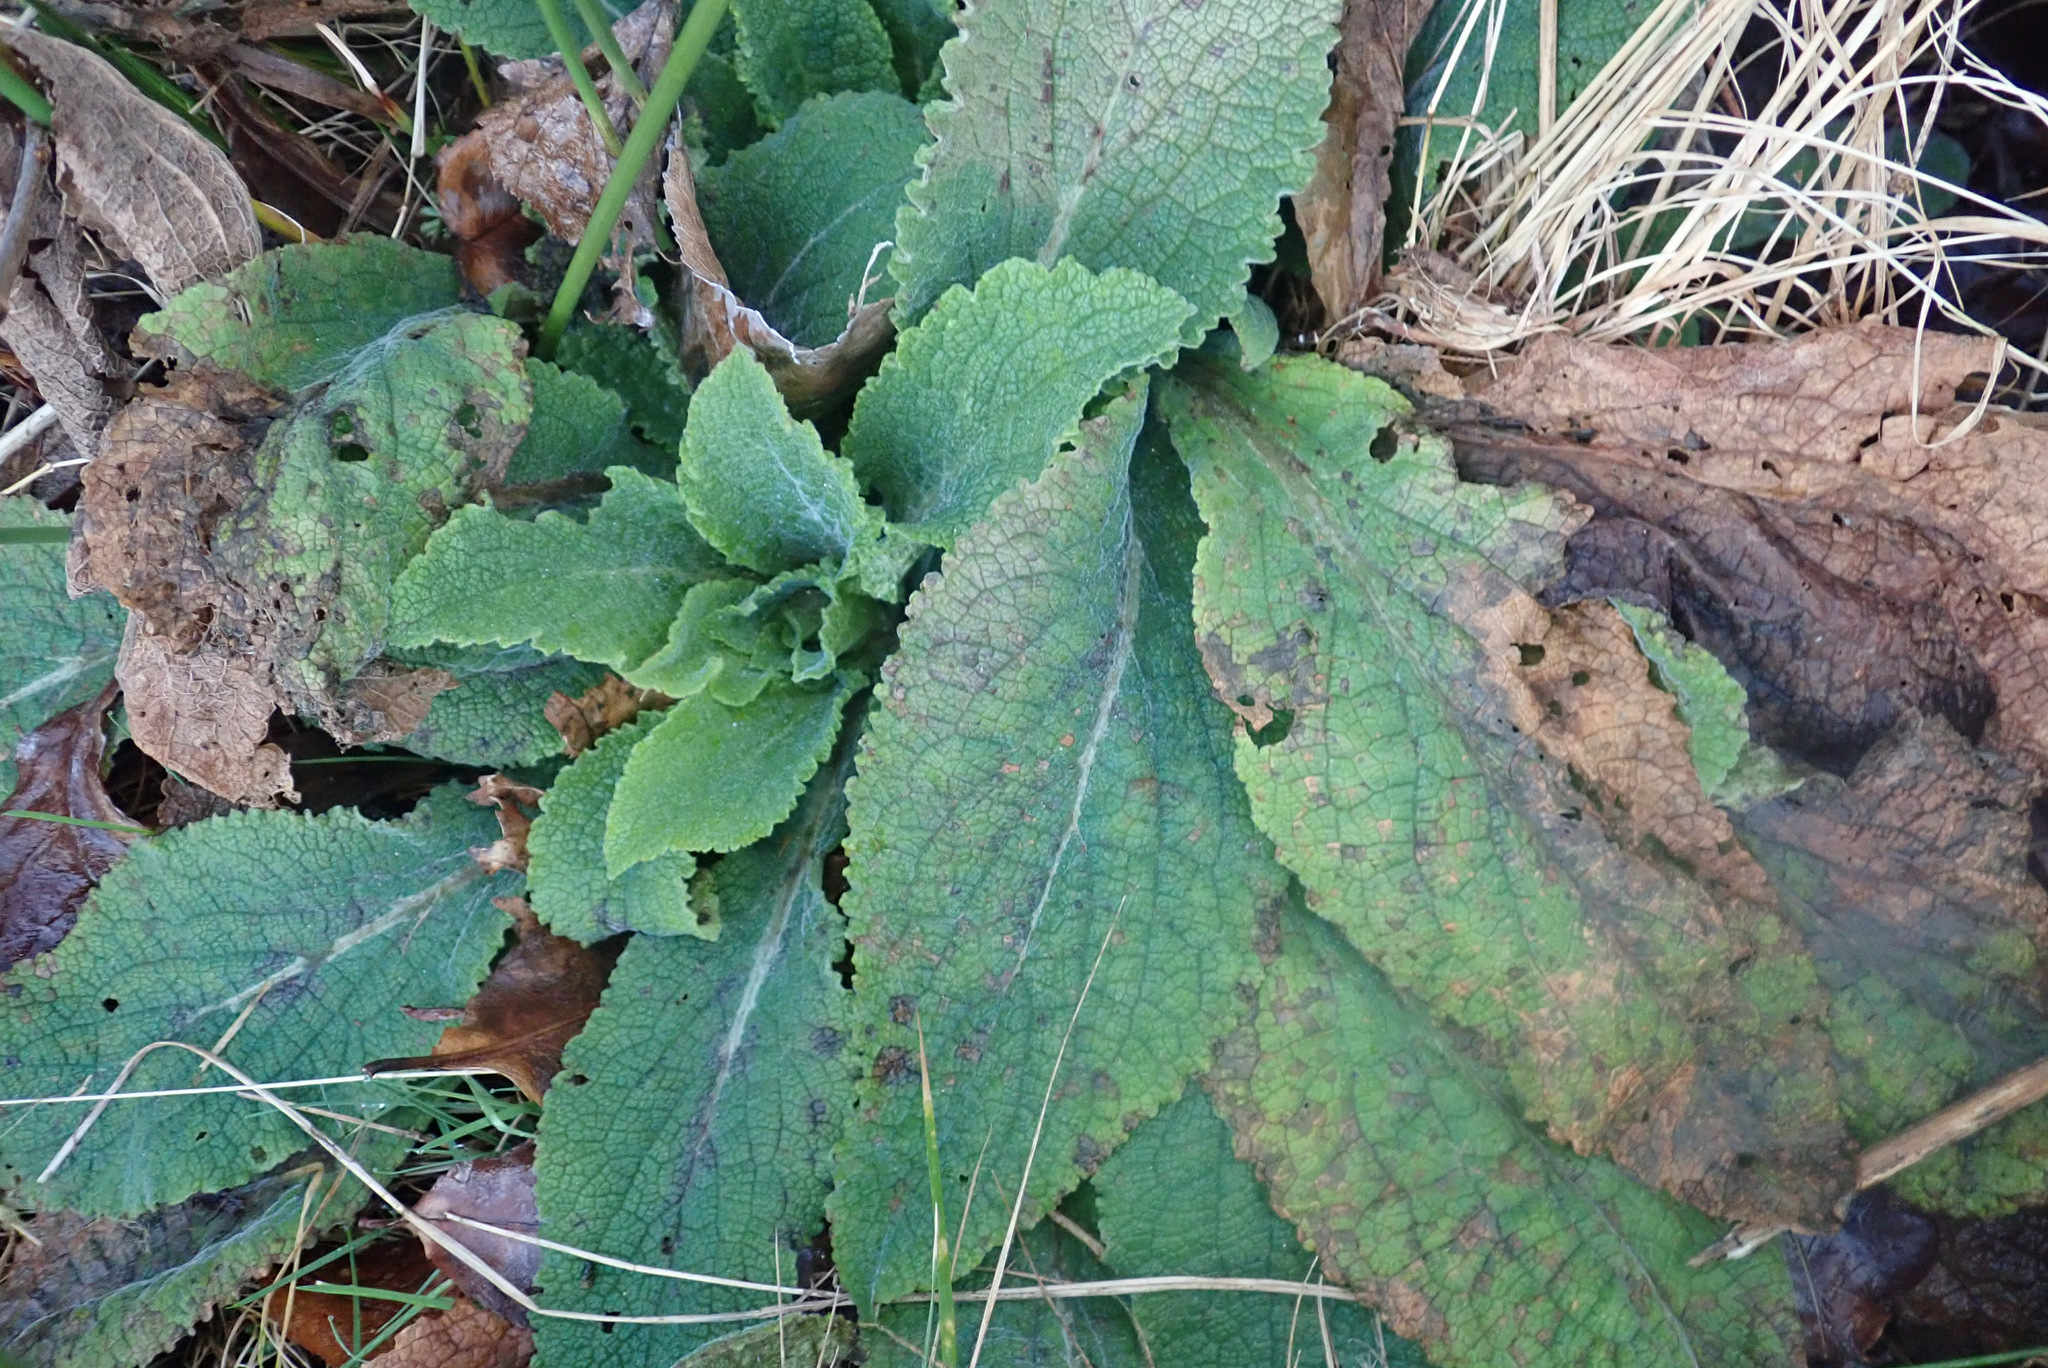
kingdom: Plantae
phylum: Tracheophyta
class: Magnoliopsida
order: Lamiales
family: Plantaginaceae
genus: Digitalis
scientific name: Digitalis purpurea
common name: Foxglove
